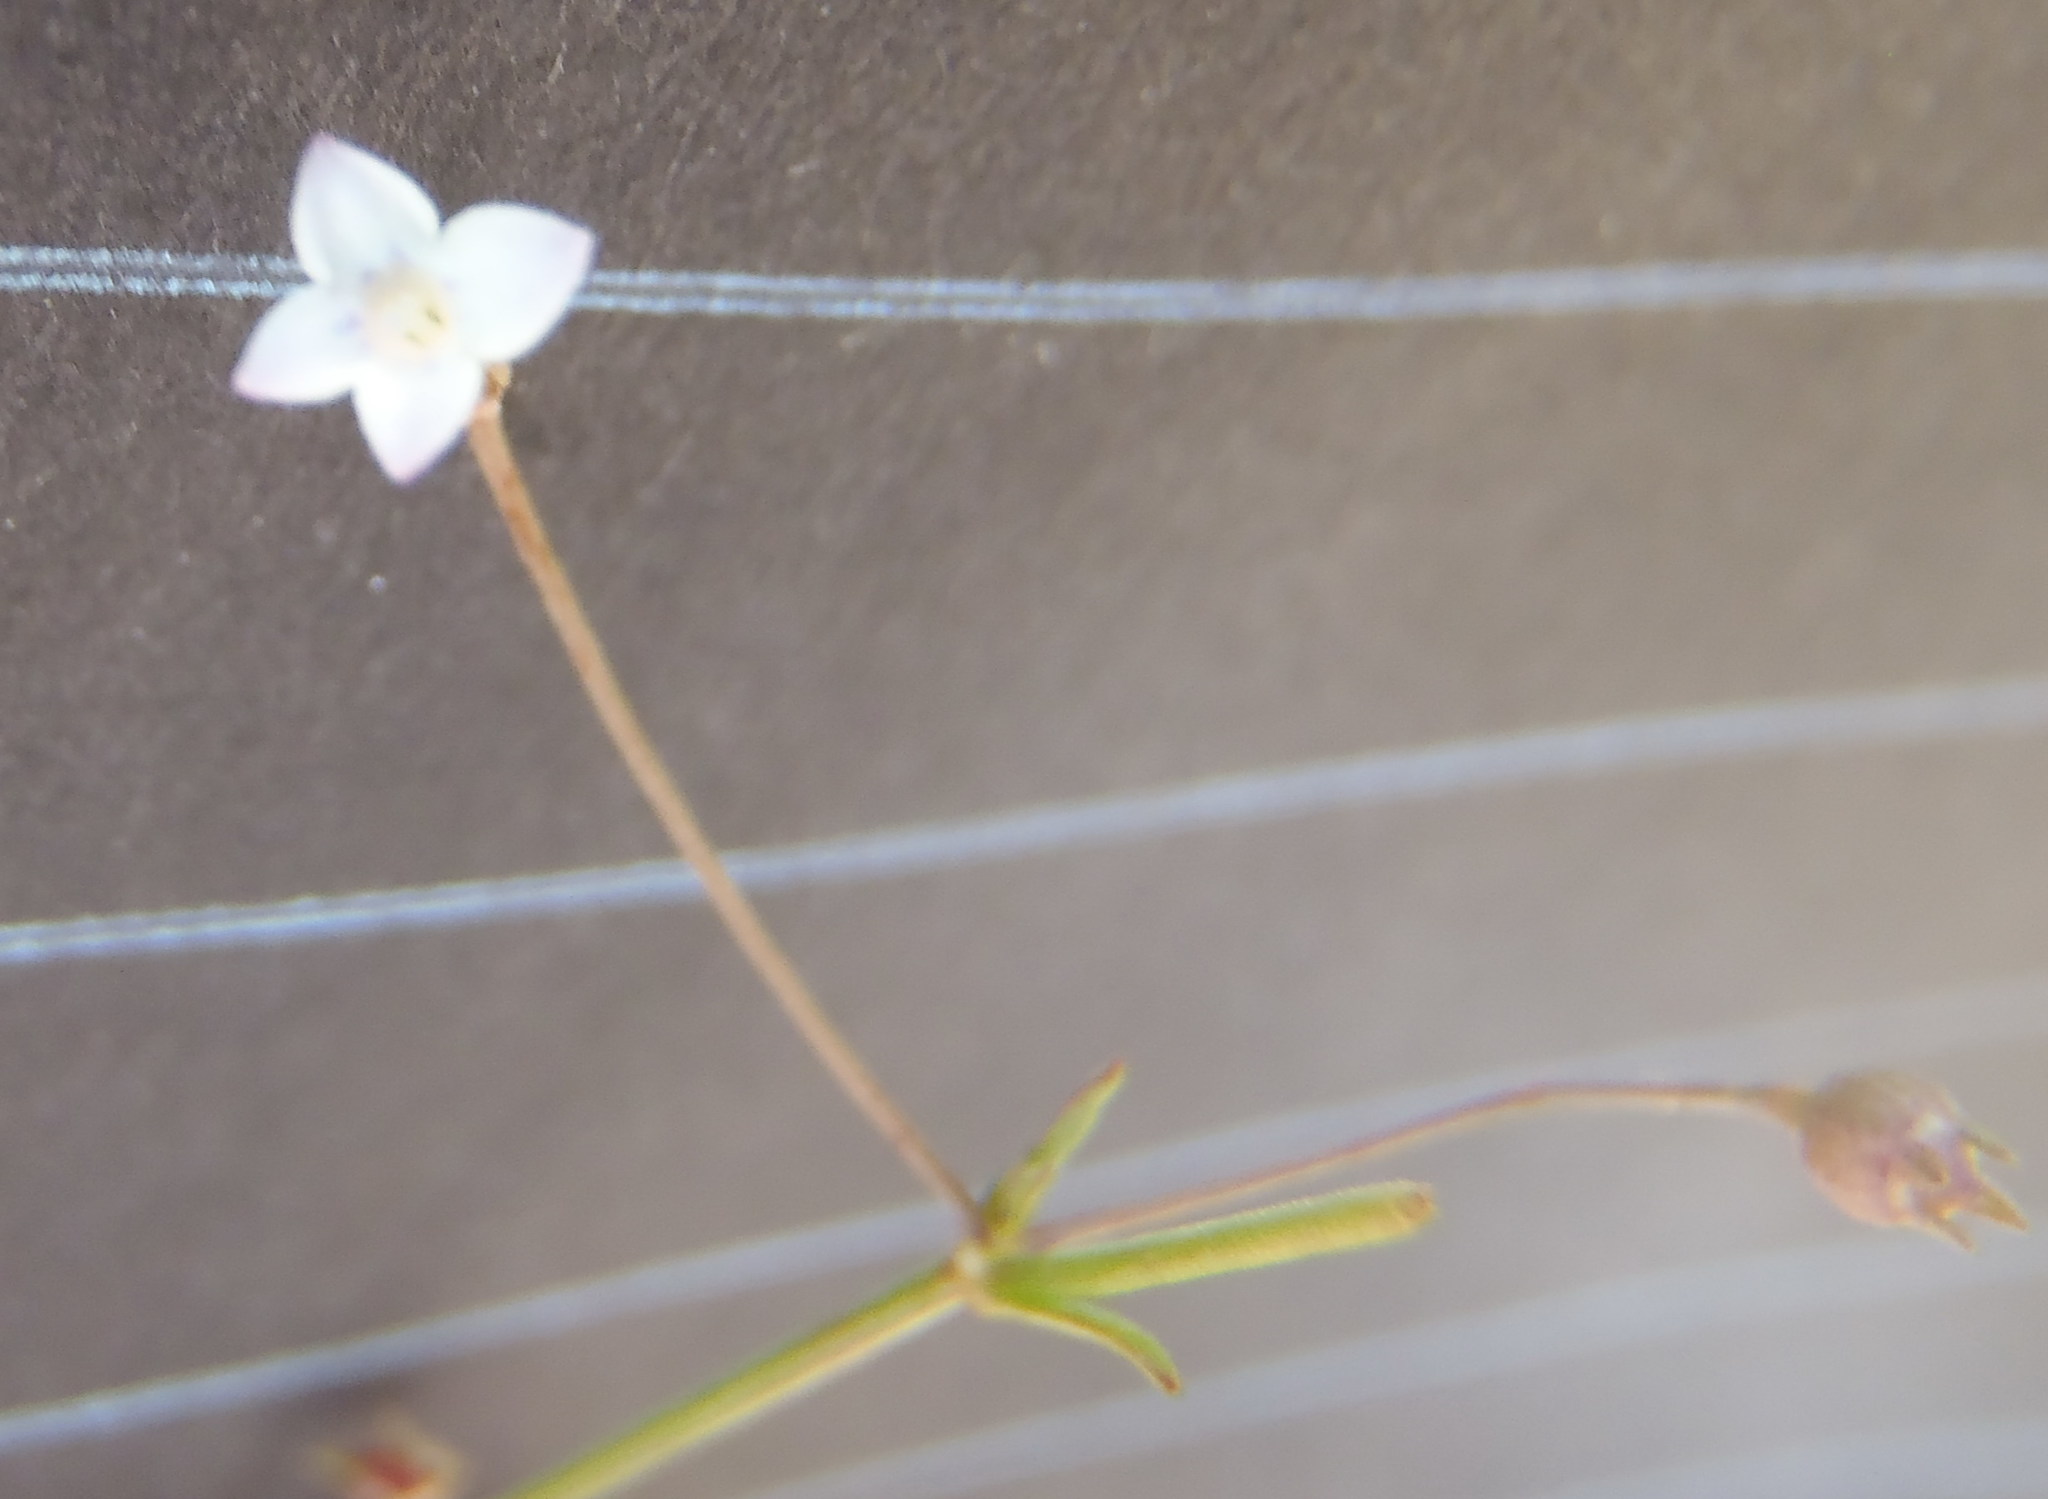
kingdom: Plantae
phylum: Tracheophyta
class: Magnoliopsida
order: Gentianales
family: Rubiaceae
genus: Oldenlandia
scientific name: Oldenlandia herbacea
